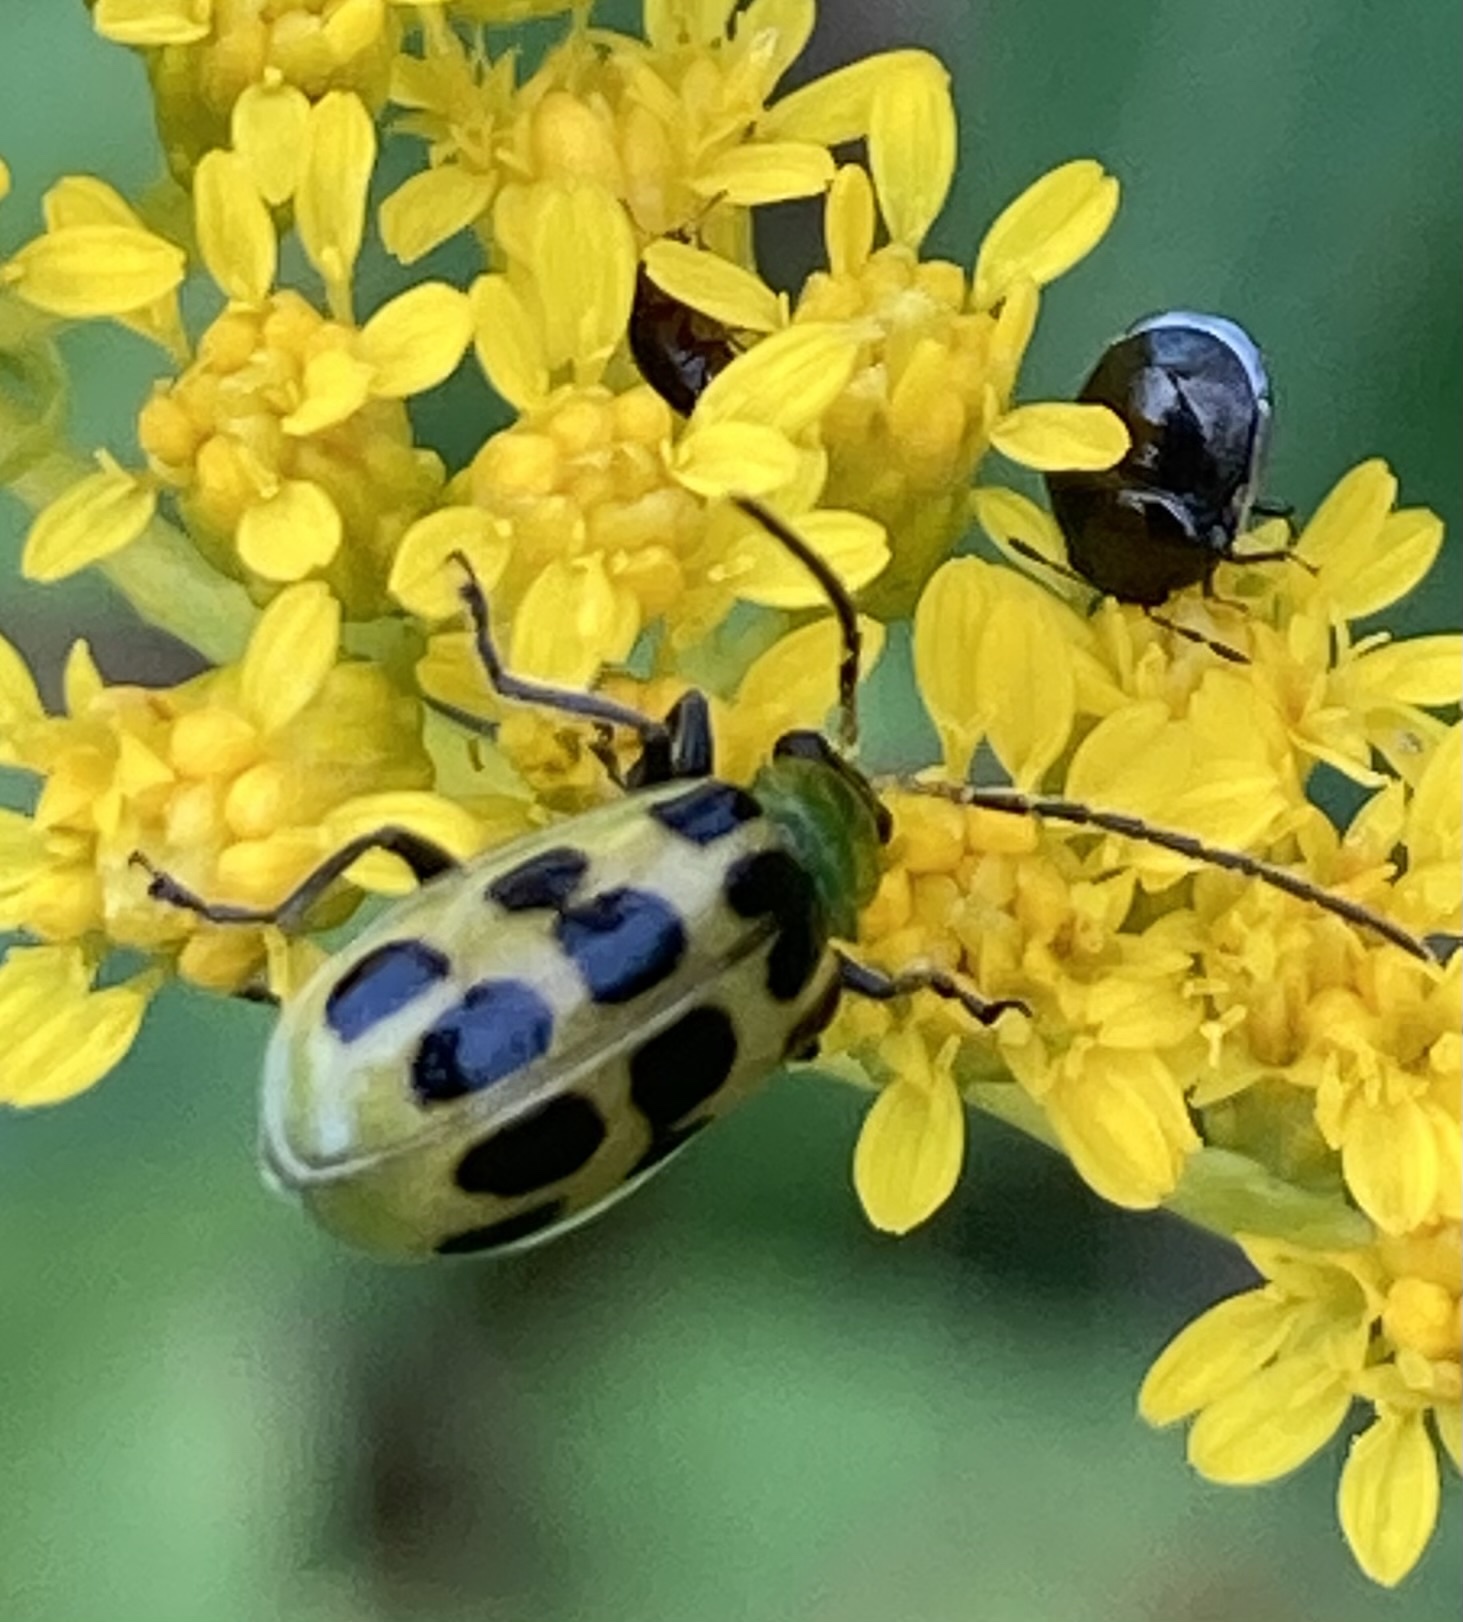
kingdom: Animalia
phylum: Arthropoda
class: Insecta
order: Coleoptera
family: Chrysomelidae
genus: Diabrotica
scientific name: Diabrotica undecimpunctata
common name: Spotted cucumber beetle
